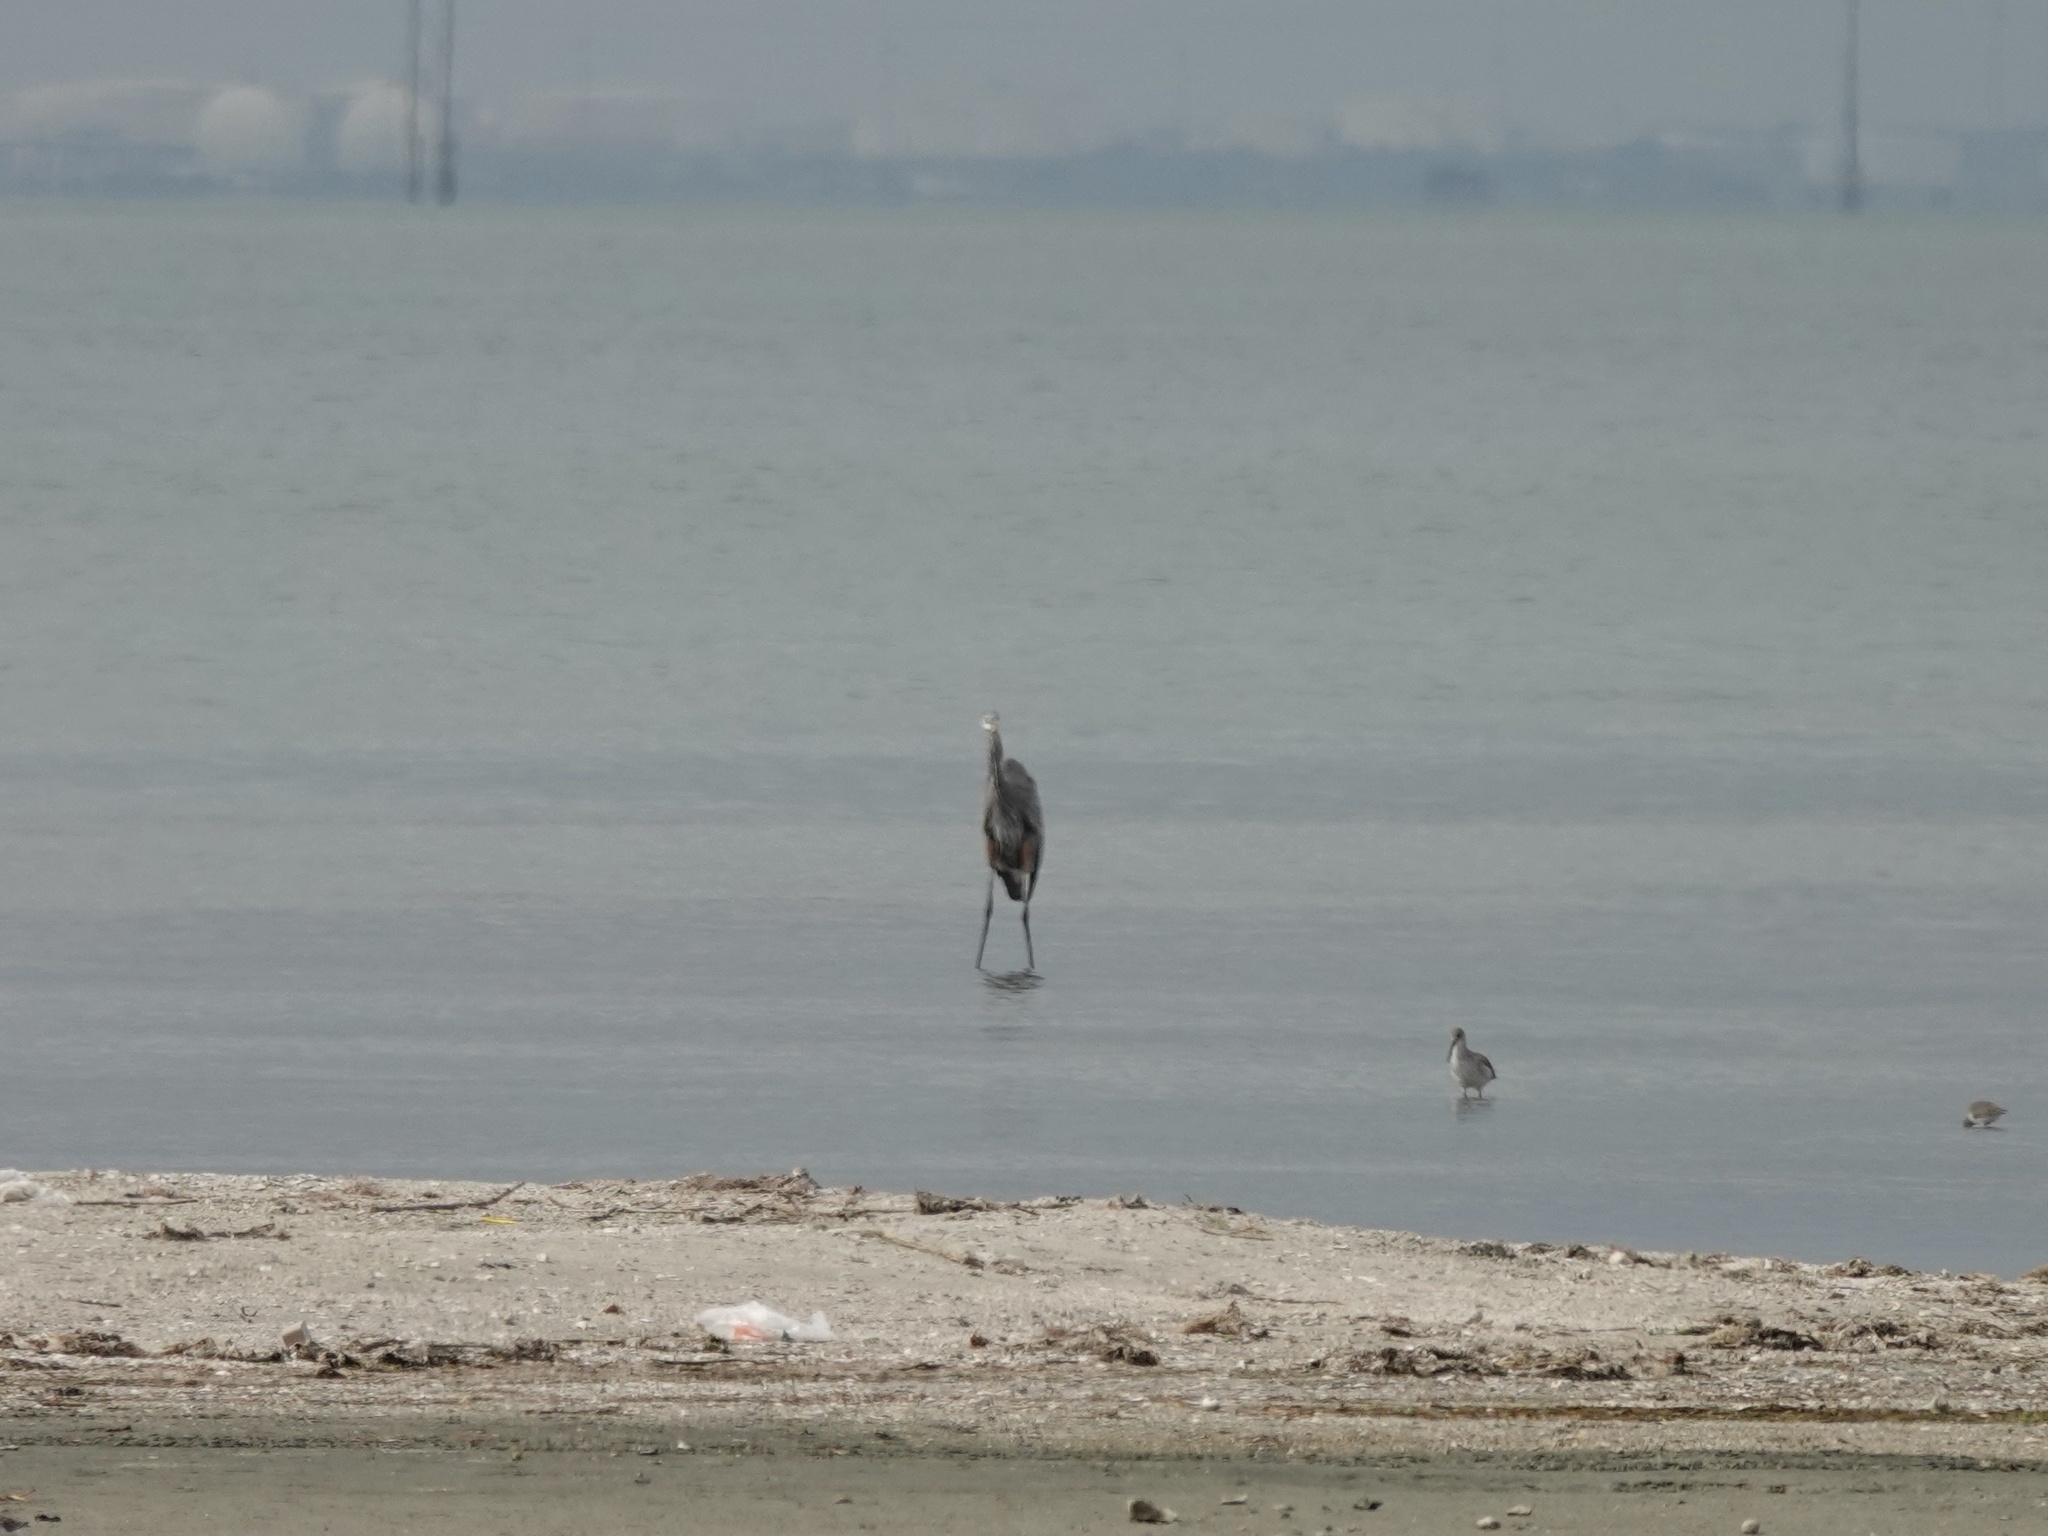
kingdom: Animalia
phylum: Chordata
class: Aves
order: Pelecaniformes
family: Ardeidae
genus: Ardea
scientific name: Ardea herodias
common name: Great blue heron
